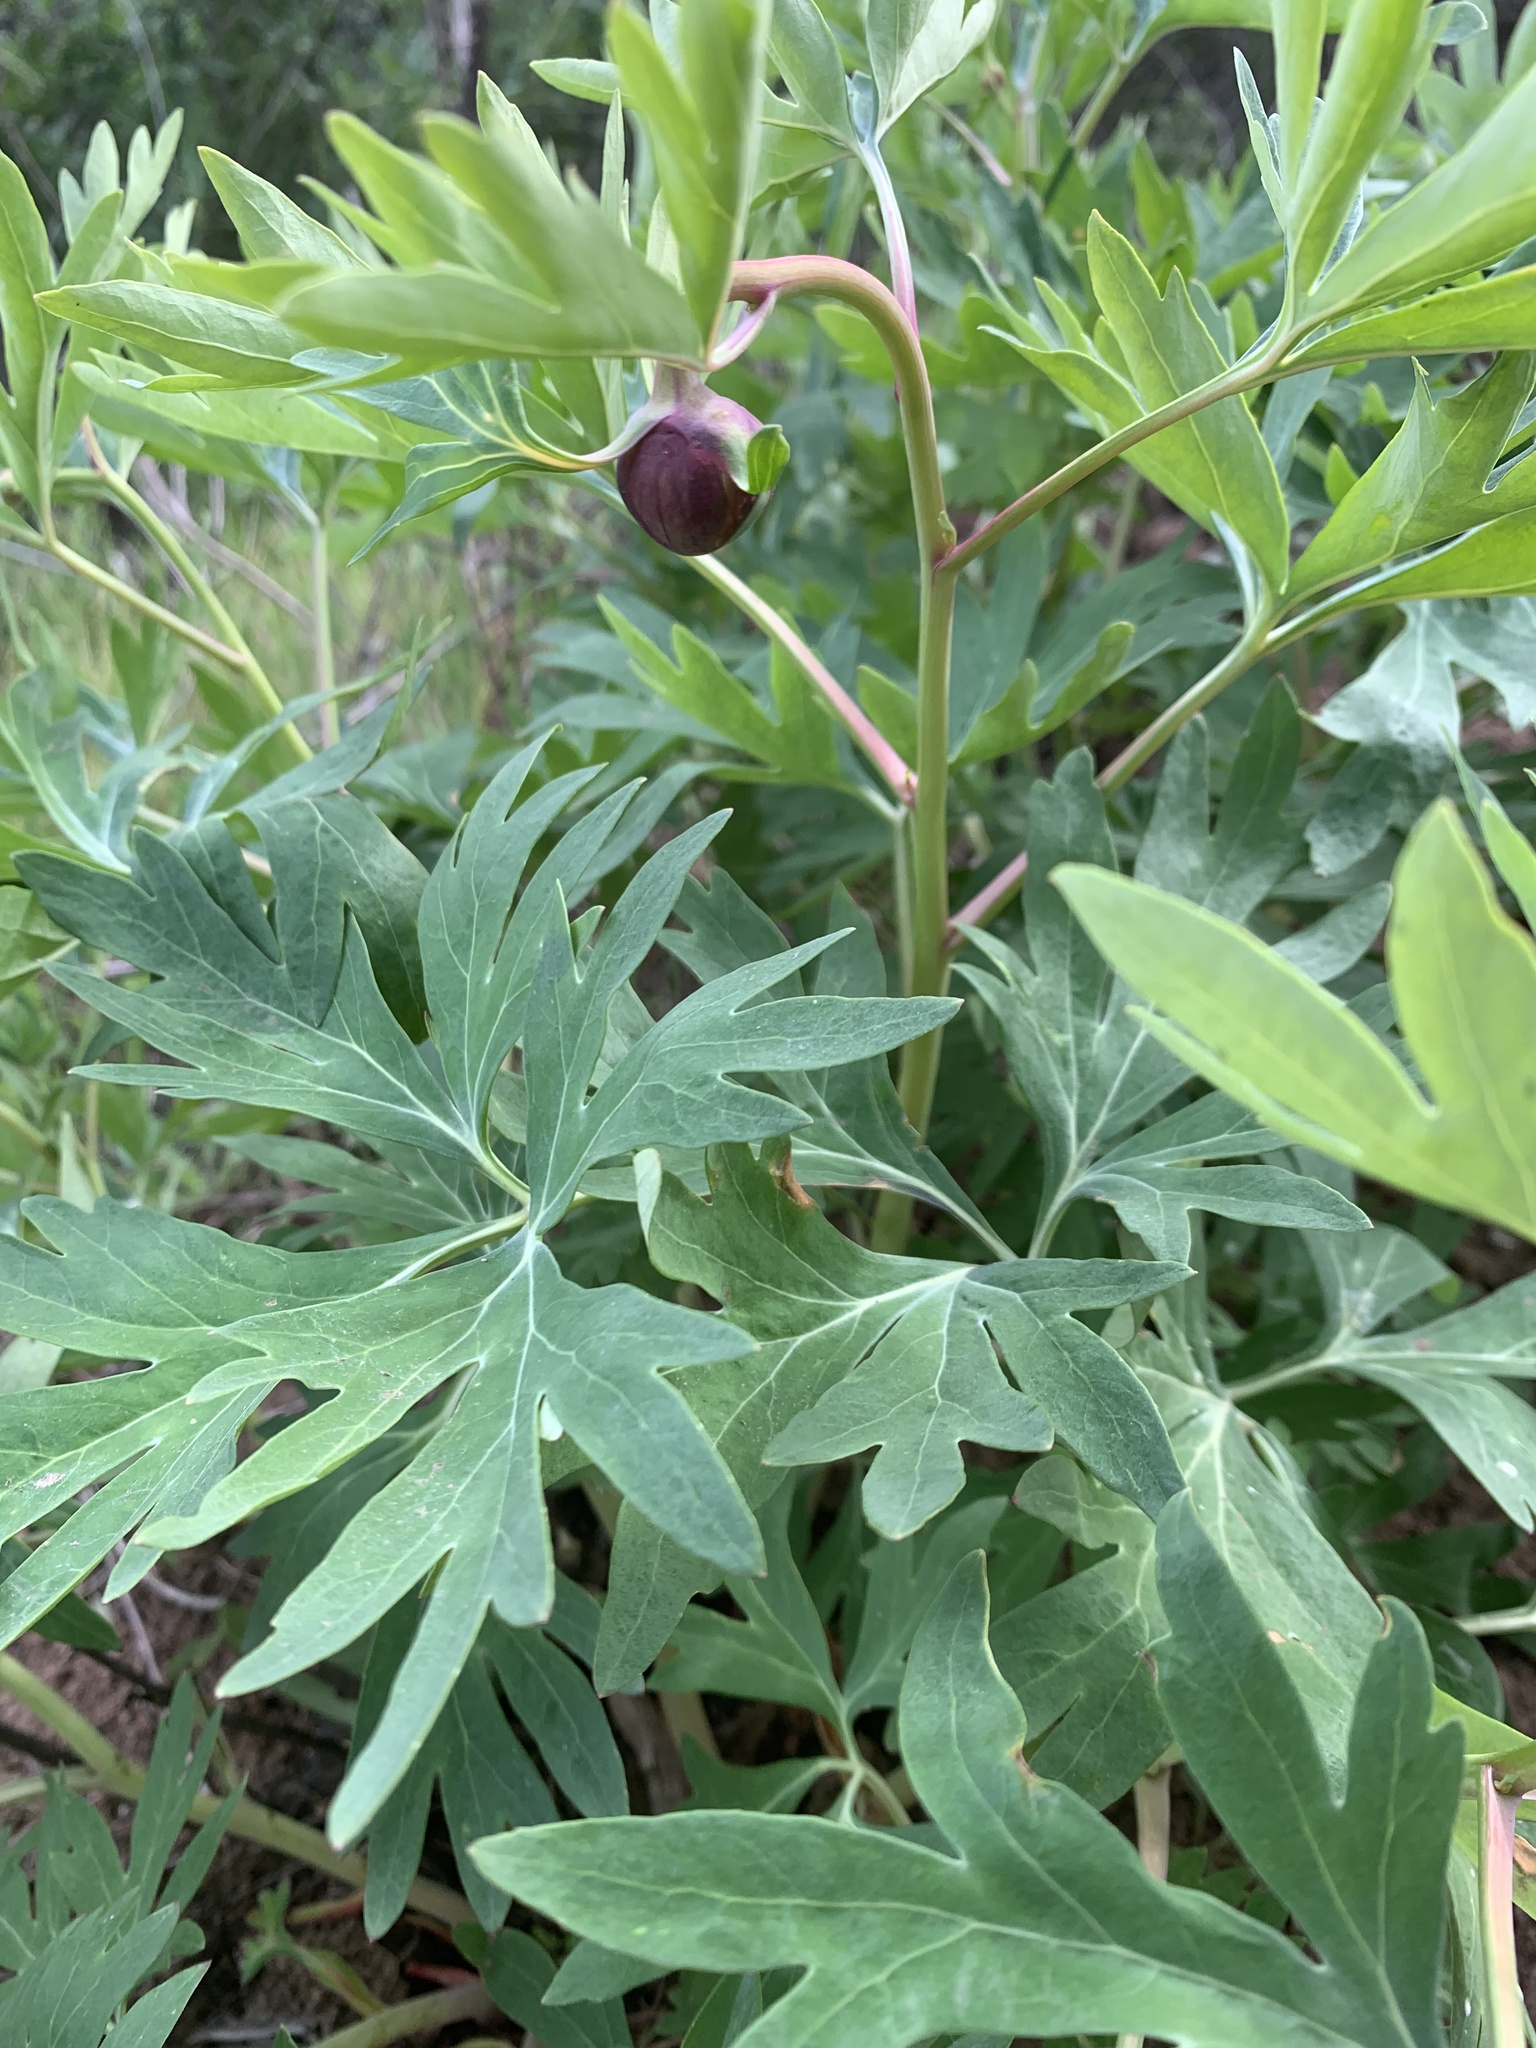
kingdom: Plantae
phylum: Tracheophyta
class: Magnoliopsida
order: Saxifragales
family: Paeoniaceae
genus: Paeonia
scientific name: Paeonia californica
